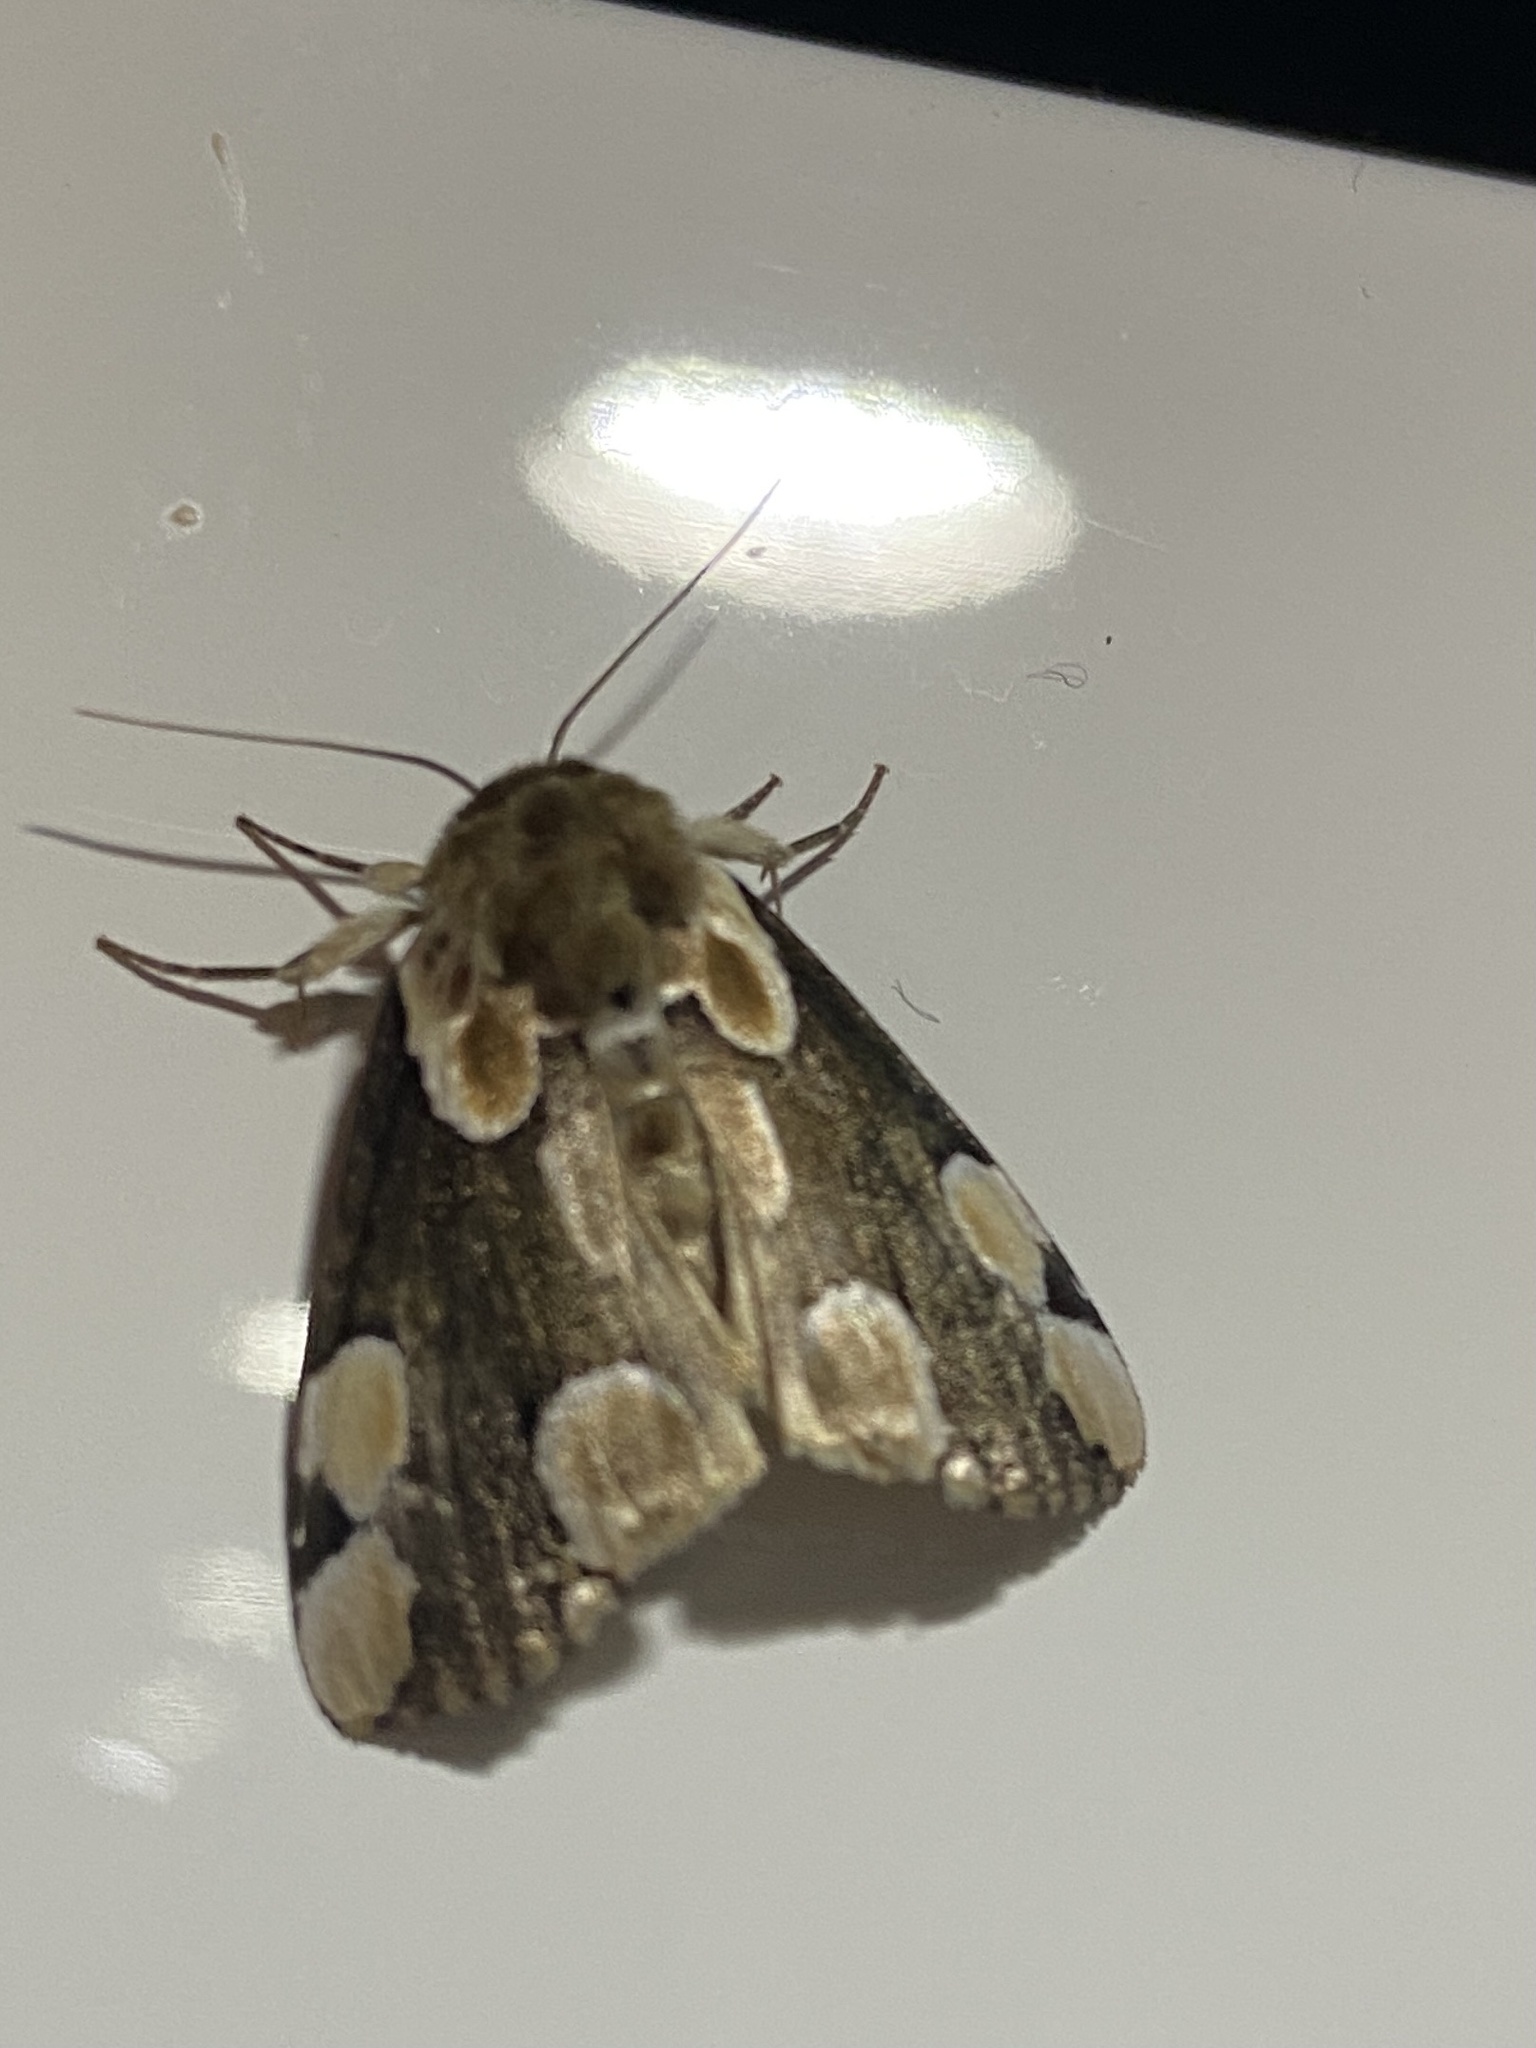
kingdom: Animalia
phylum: Arthropoda
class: Insecta
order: Lepidoptera
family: Drepanidae
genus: Thyatira
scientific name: Thyatira batis
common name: Peach blossom
